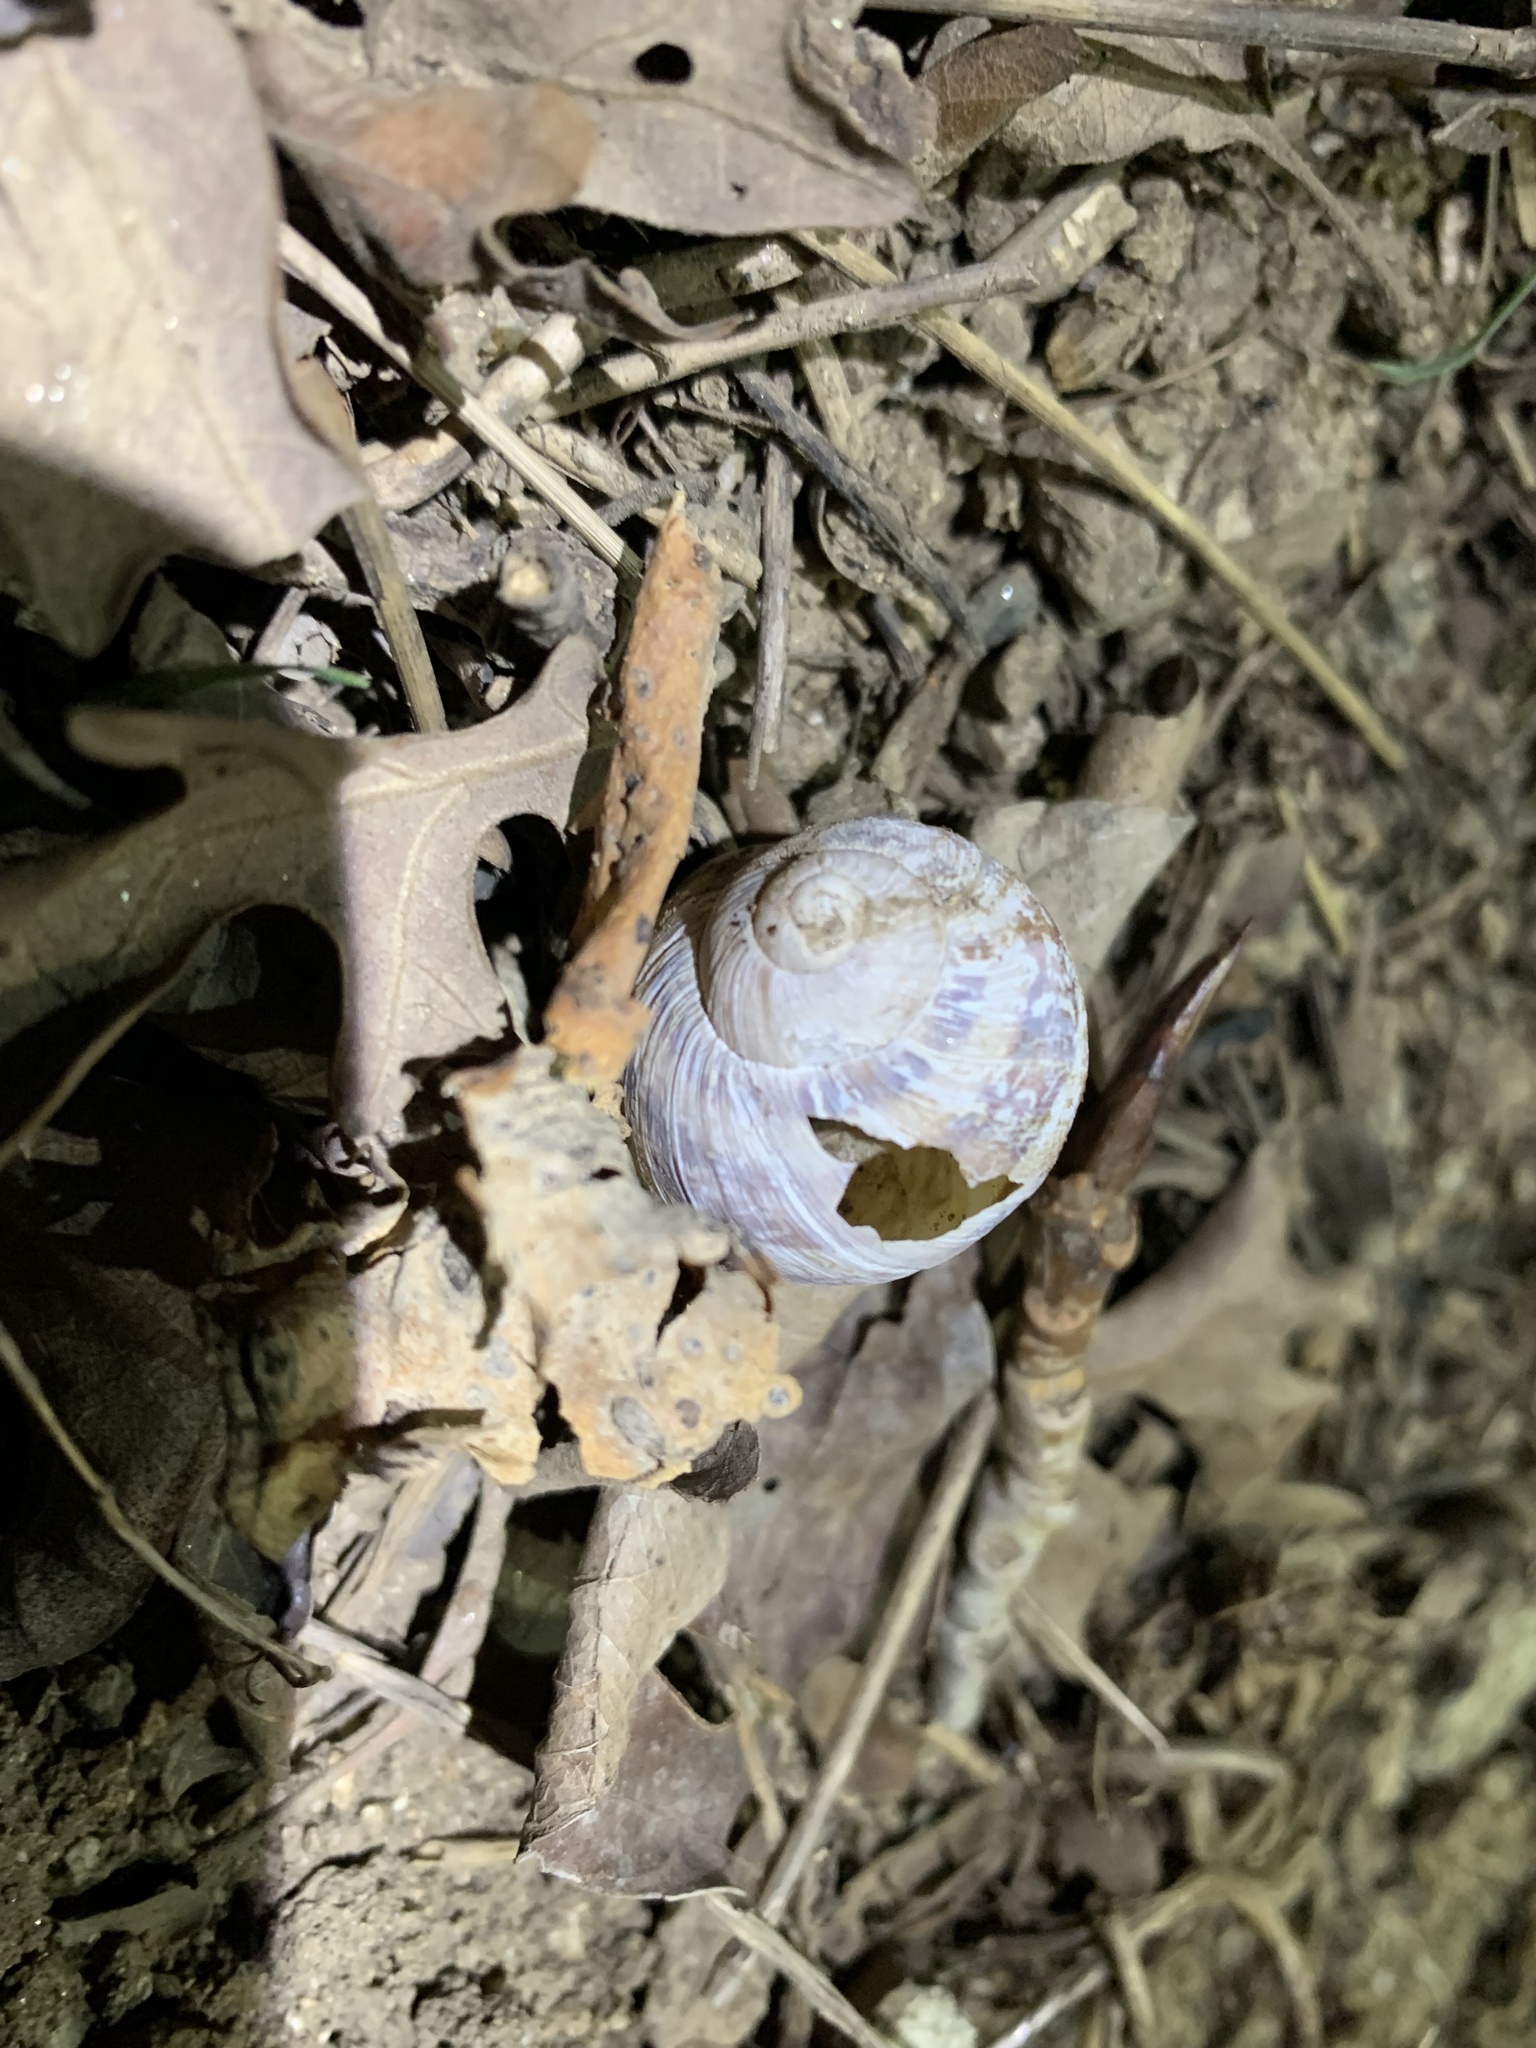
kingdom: Animalia
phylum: Mollusca
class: Gastropoda
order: Stylommatophora
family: Helicidae
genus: Cornu
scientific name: Cornu aspersum
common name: Brown garden snail
